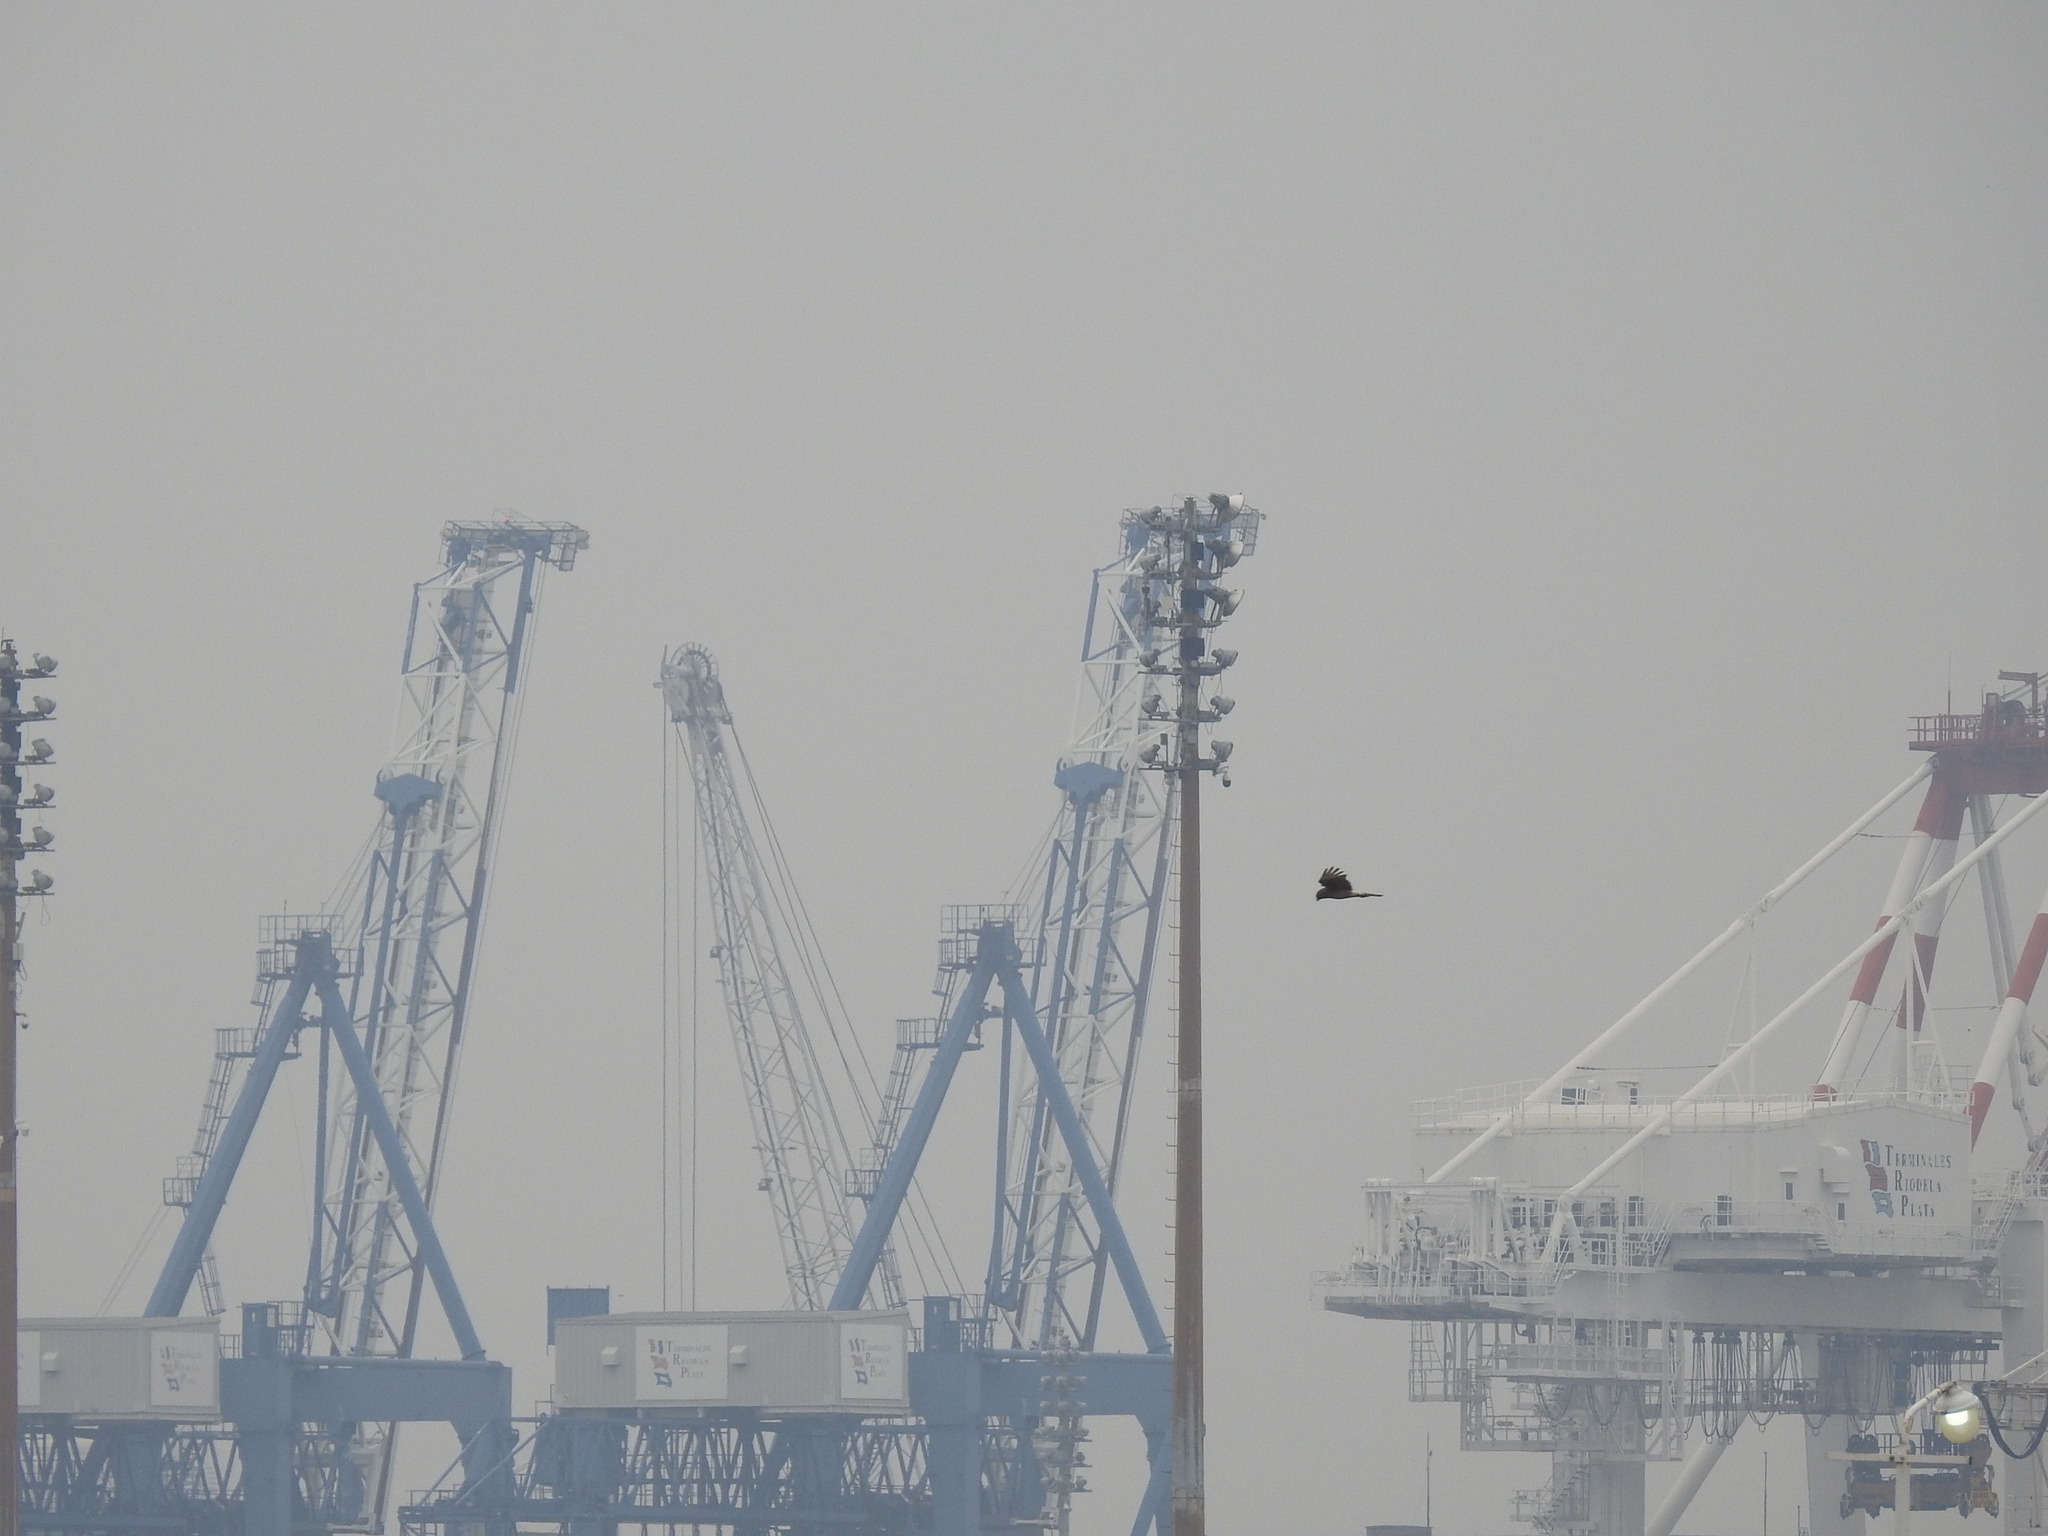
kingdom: Animalia
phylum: Chordata
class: Aves
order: Falconiformes
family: Falconidae
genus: Daptrius
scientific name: Daptrius
